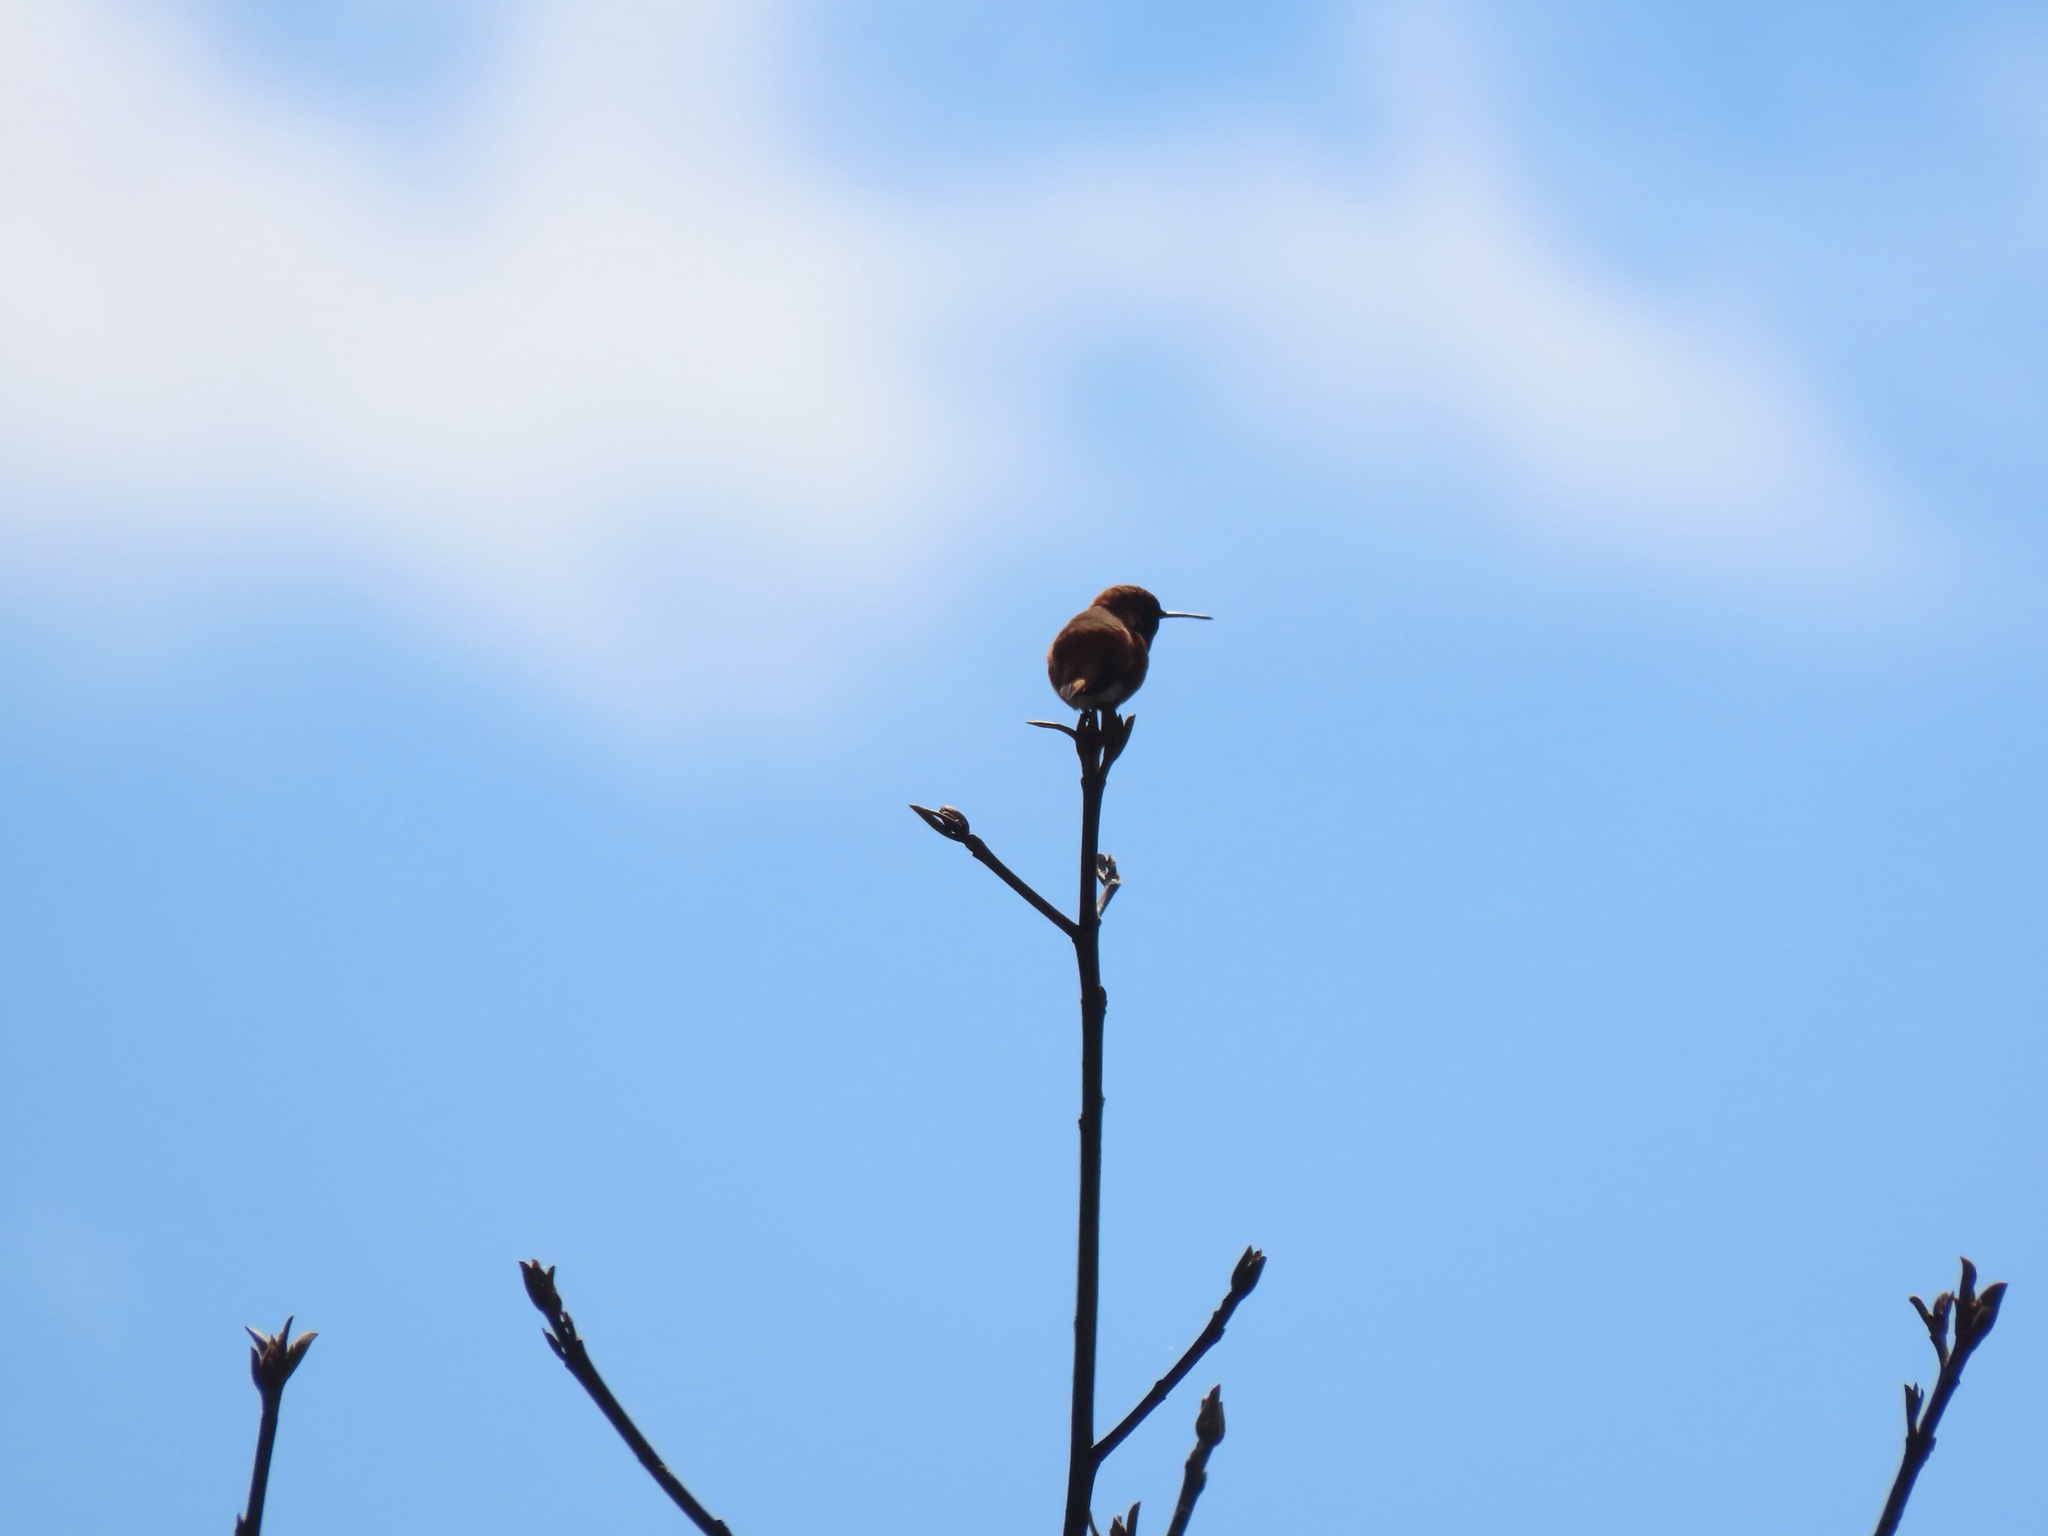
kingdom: Animalia
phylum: Chordata
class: Aves
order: Apodiformes
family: Trochilidae
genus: Selasphorus
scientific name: Selasphorus rufus
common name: Rufous hummingbird
